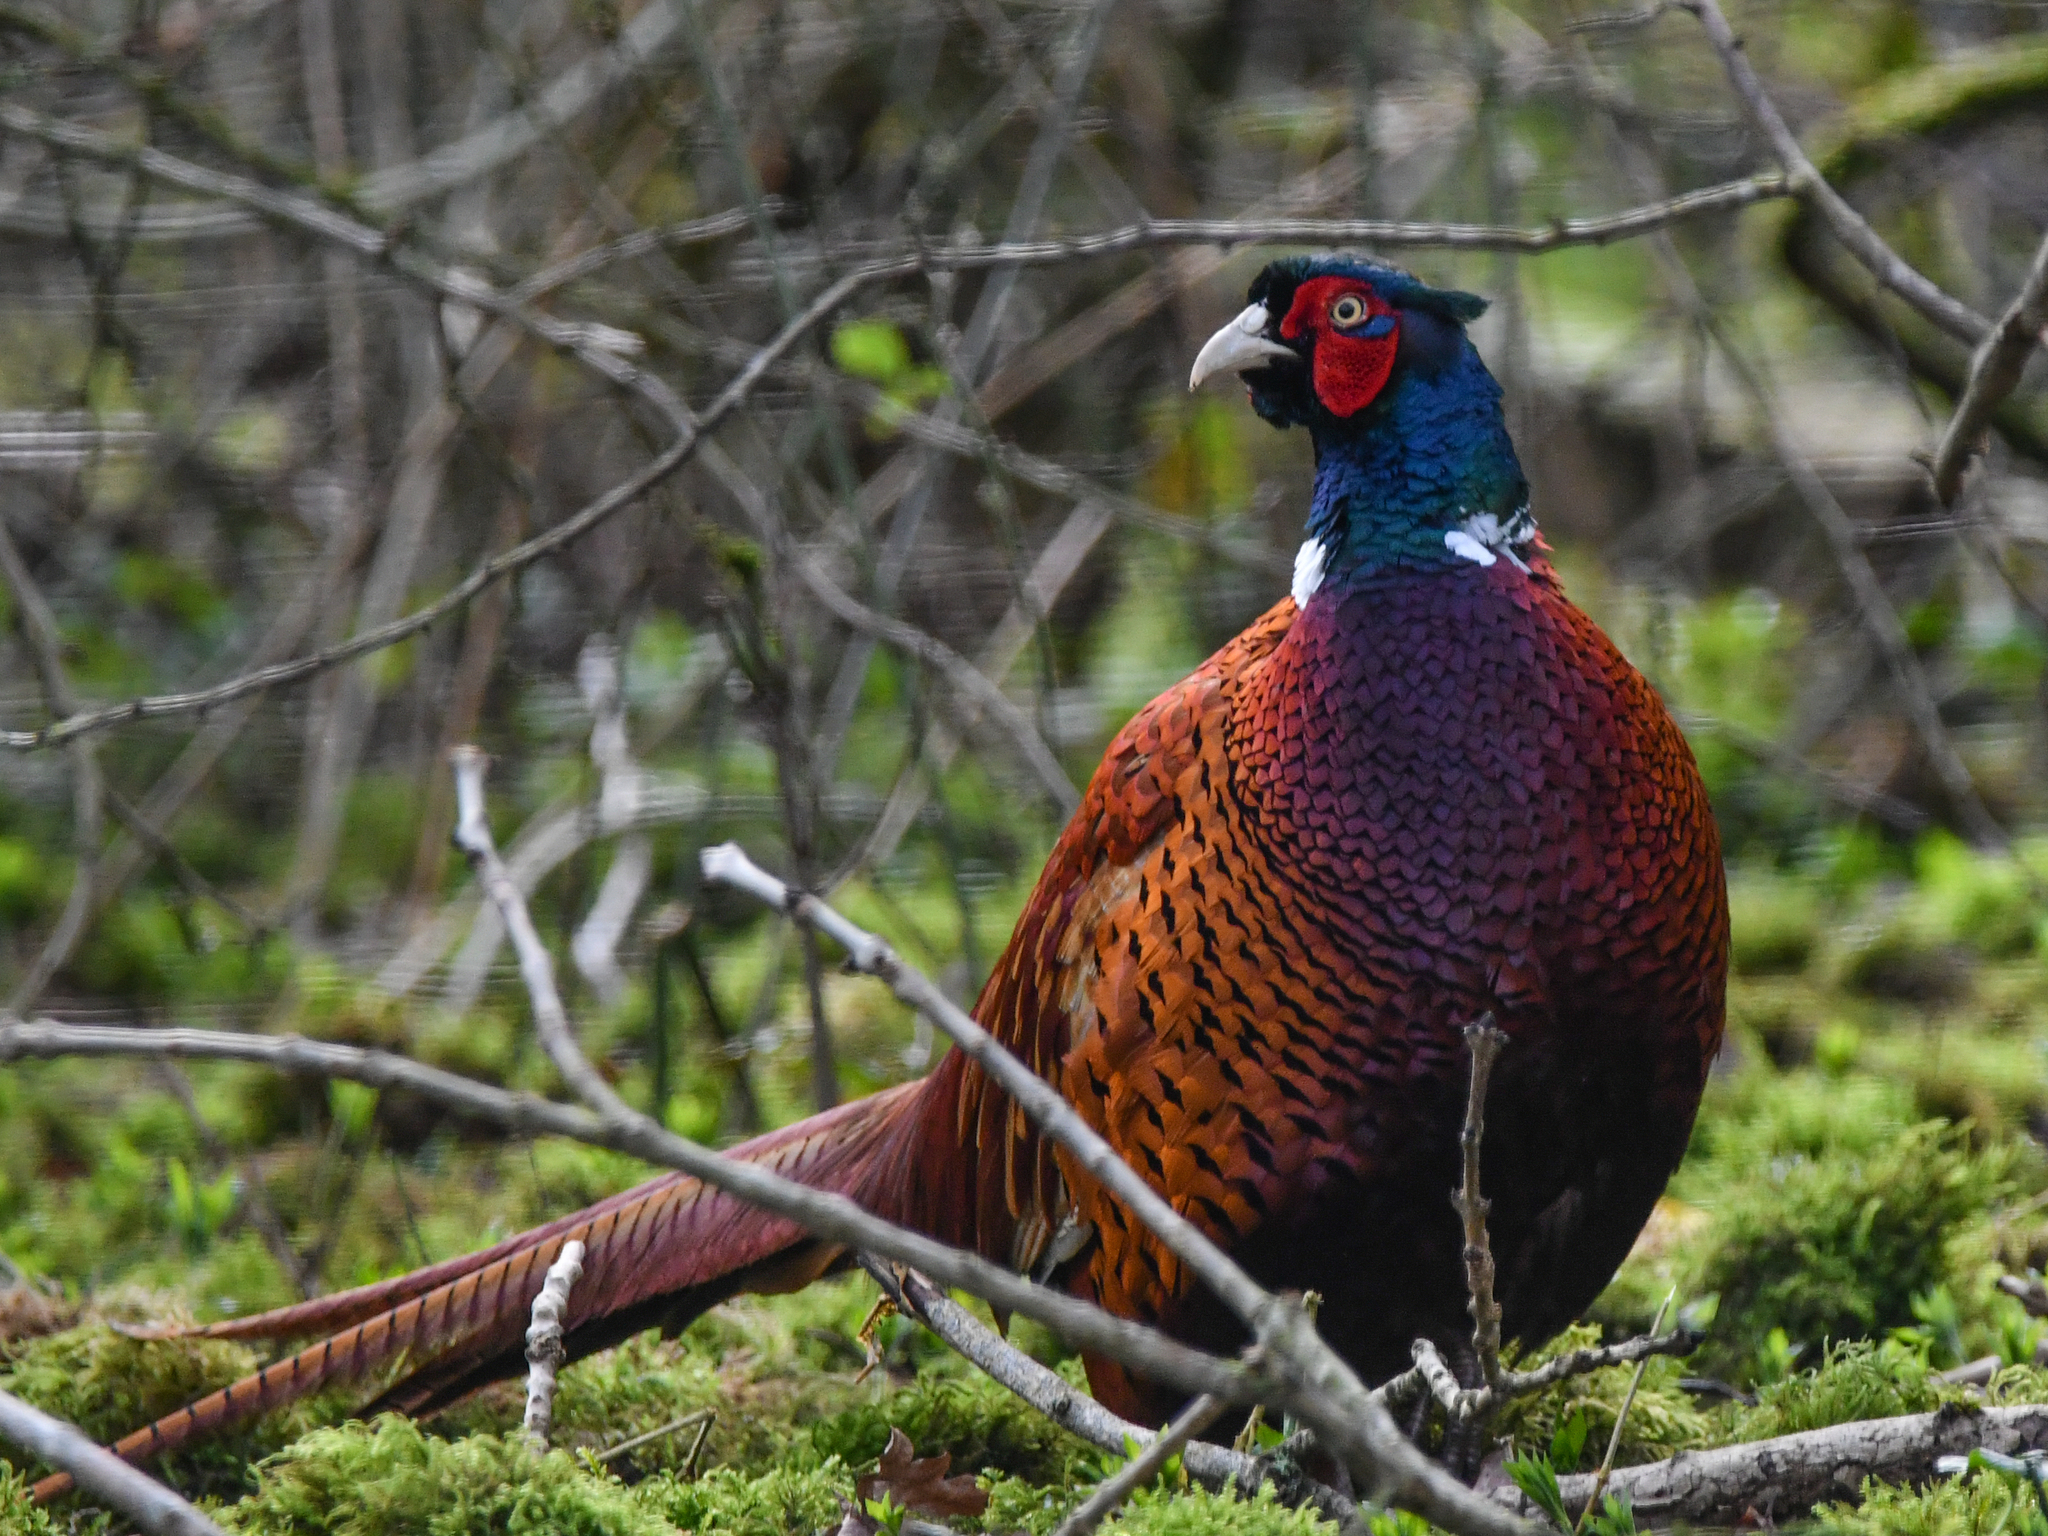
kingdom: Animalia
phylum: Chordata
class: Aves
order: Galliformes
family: Phasianidae
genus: Phasianus
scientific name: Phasianus colchicus
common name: Common pheasant
